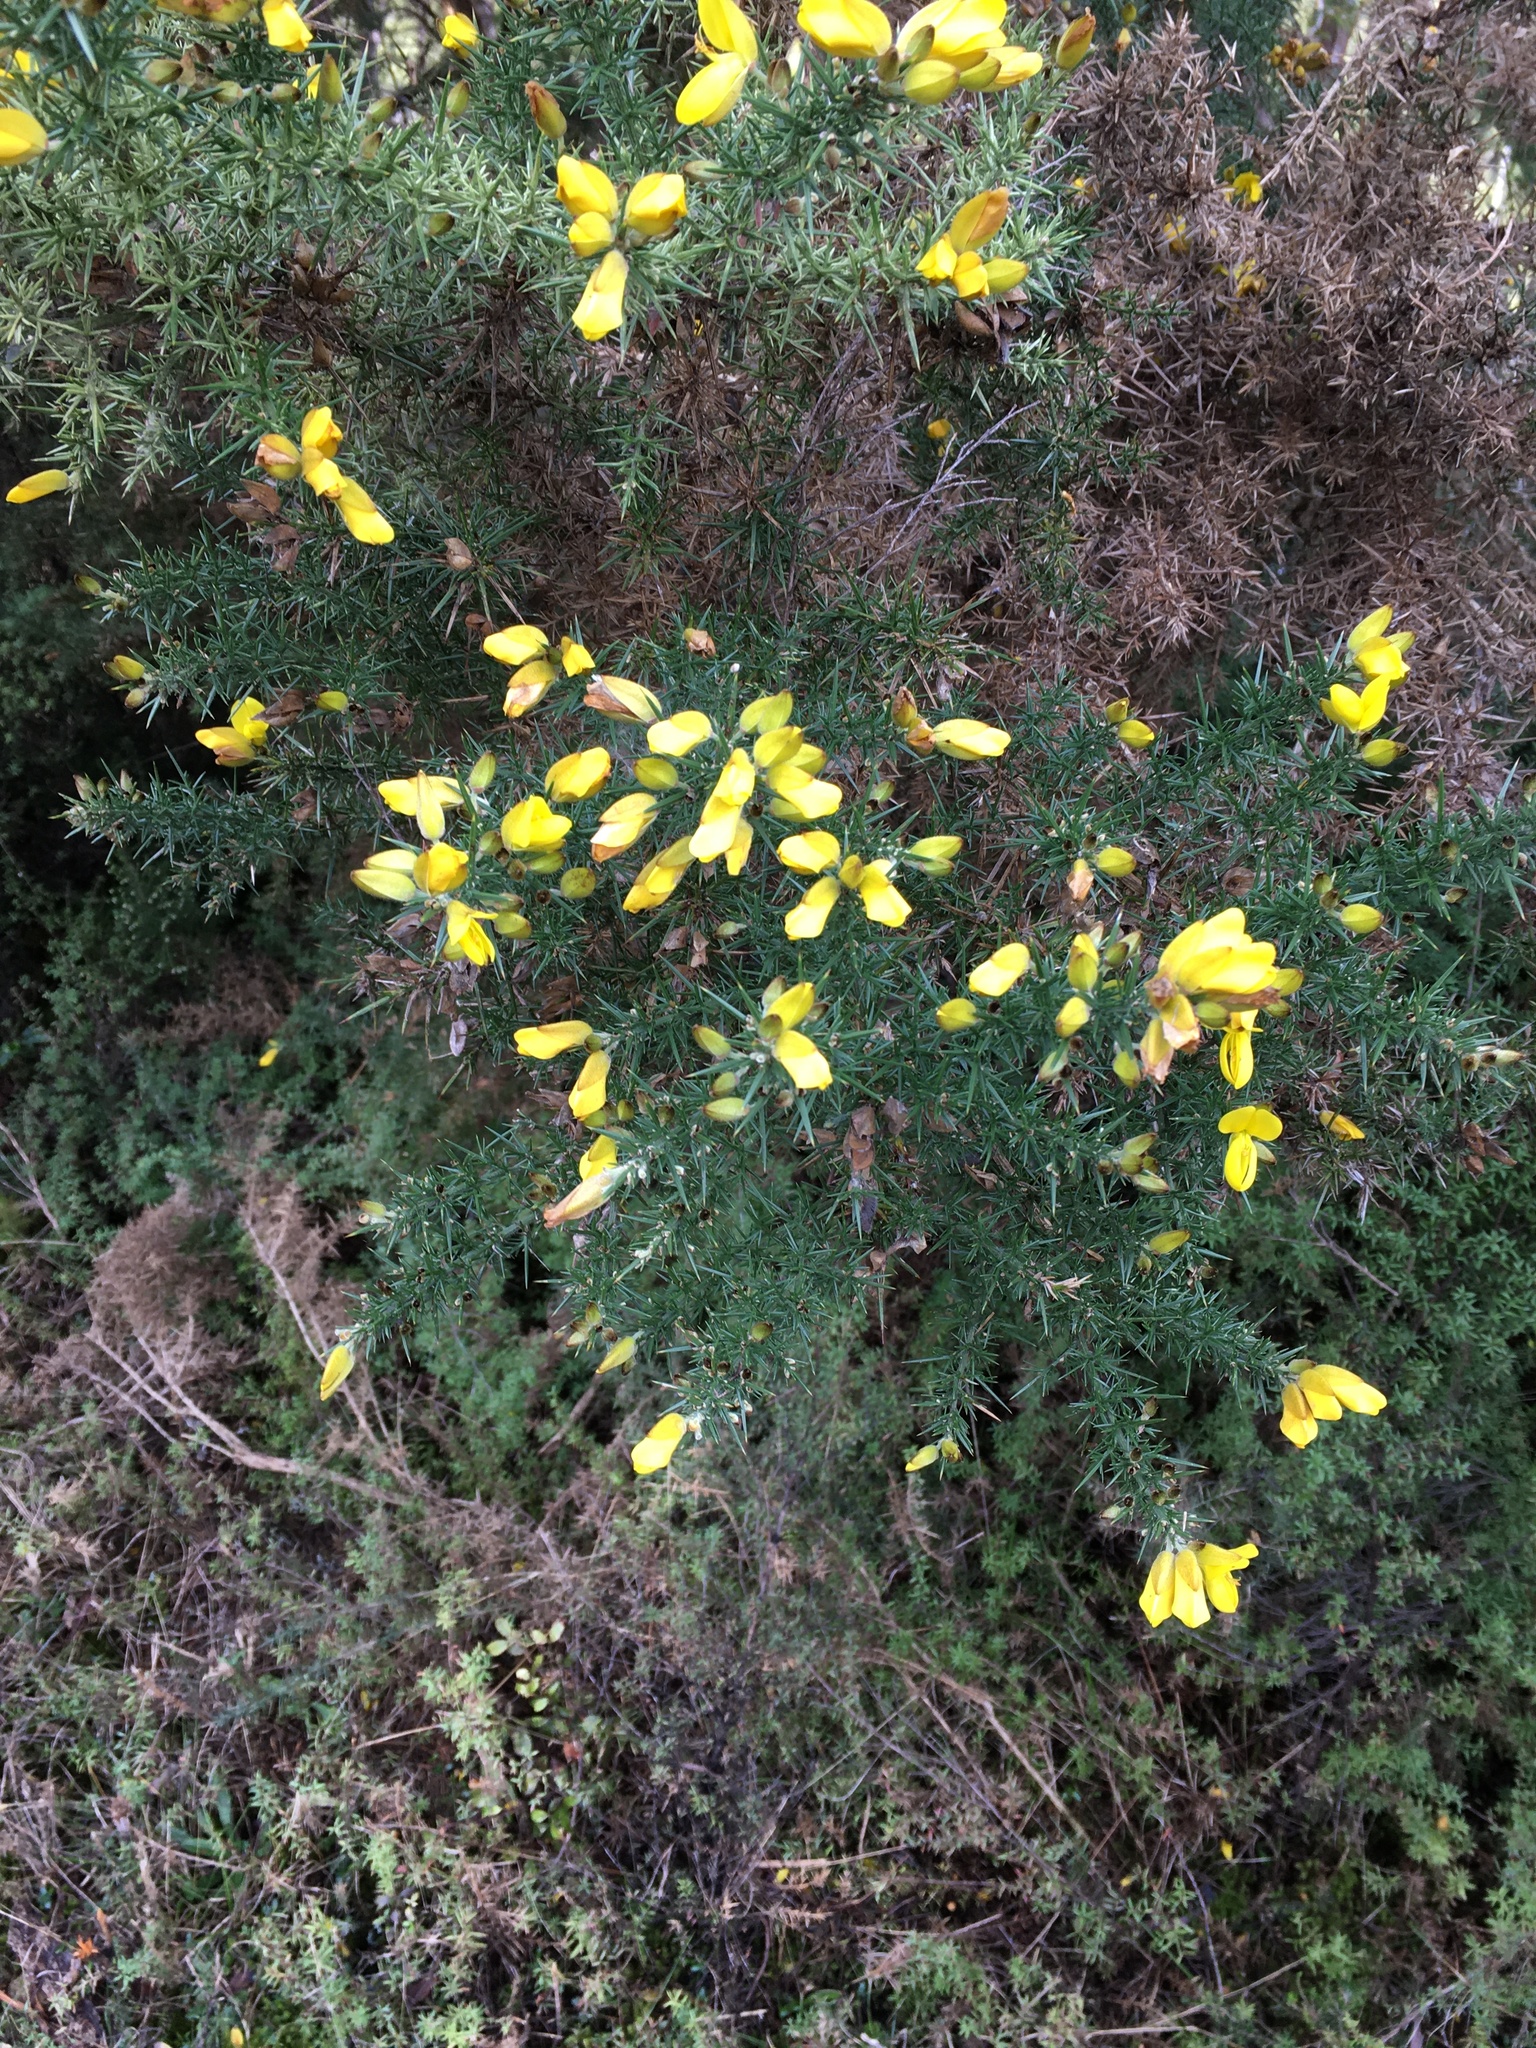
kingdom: Plantae
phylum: Tracheophyta
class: Magnoliopsida
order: Fabales
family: Fabaceae
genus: Ulex
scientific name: Ulex europaeus
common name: Common gorse
